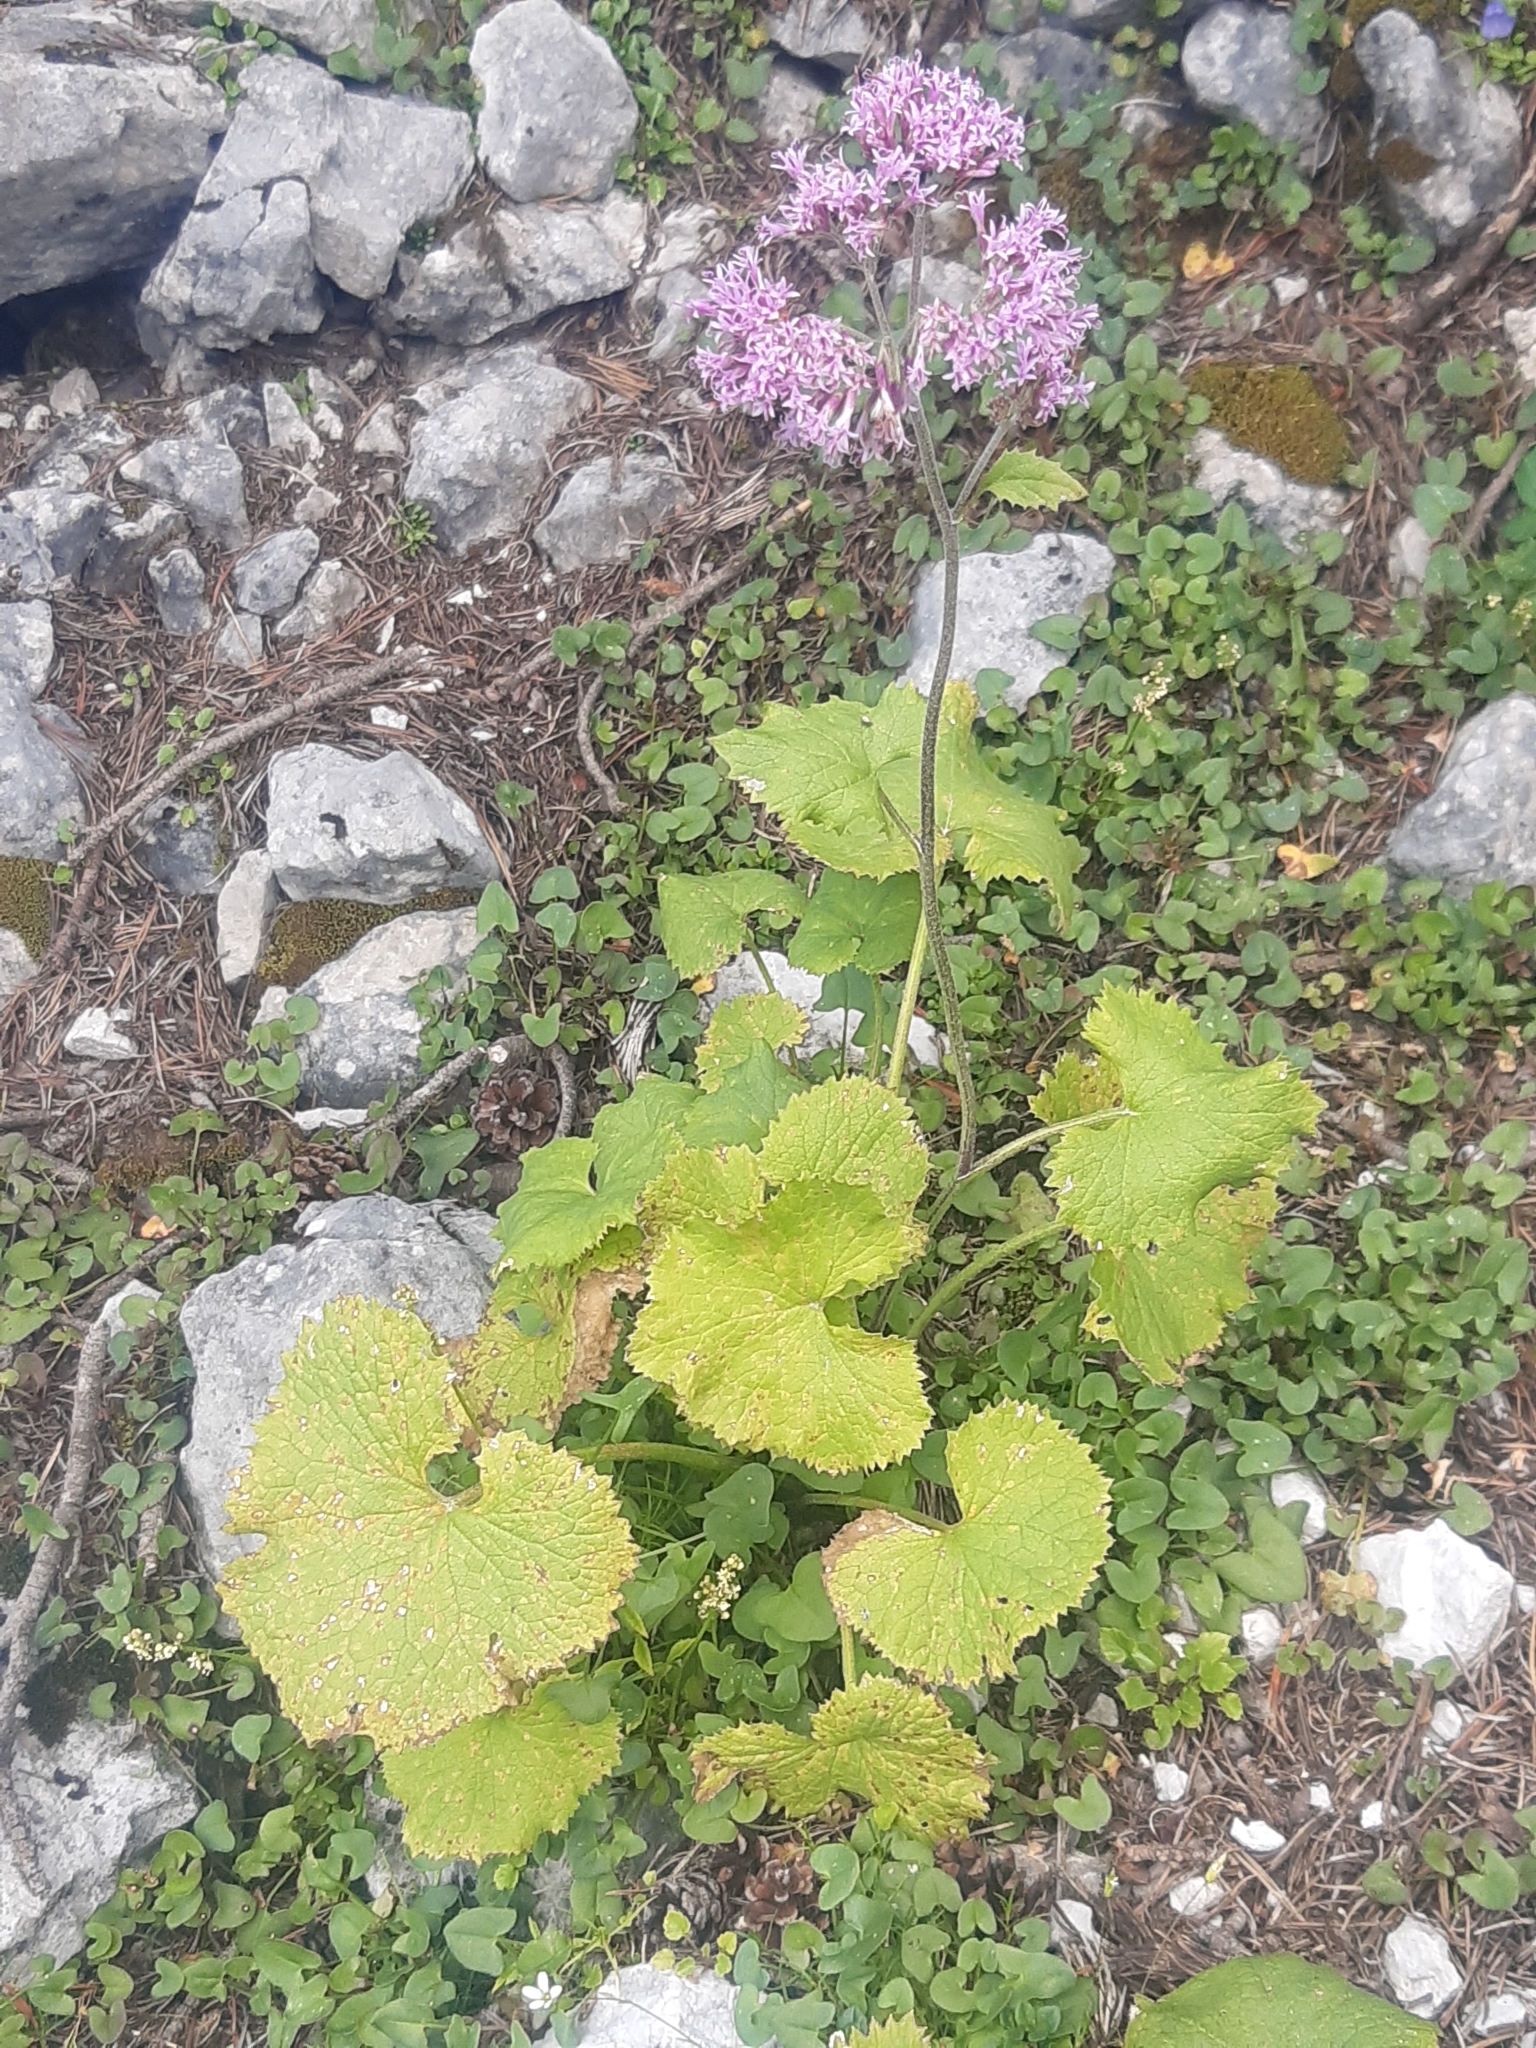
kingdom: Plantae
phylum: Tracheophyta
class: Magnoliopsida
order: Asterales
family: Asteraceae
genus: Adenostyles
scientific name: Adenostyles alpina
